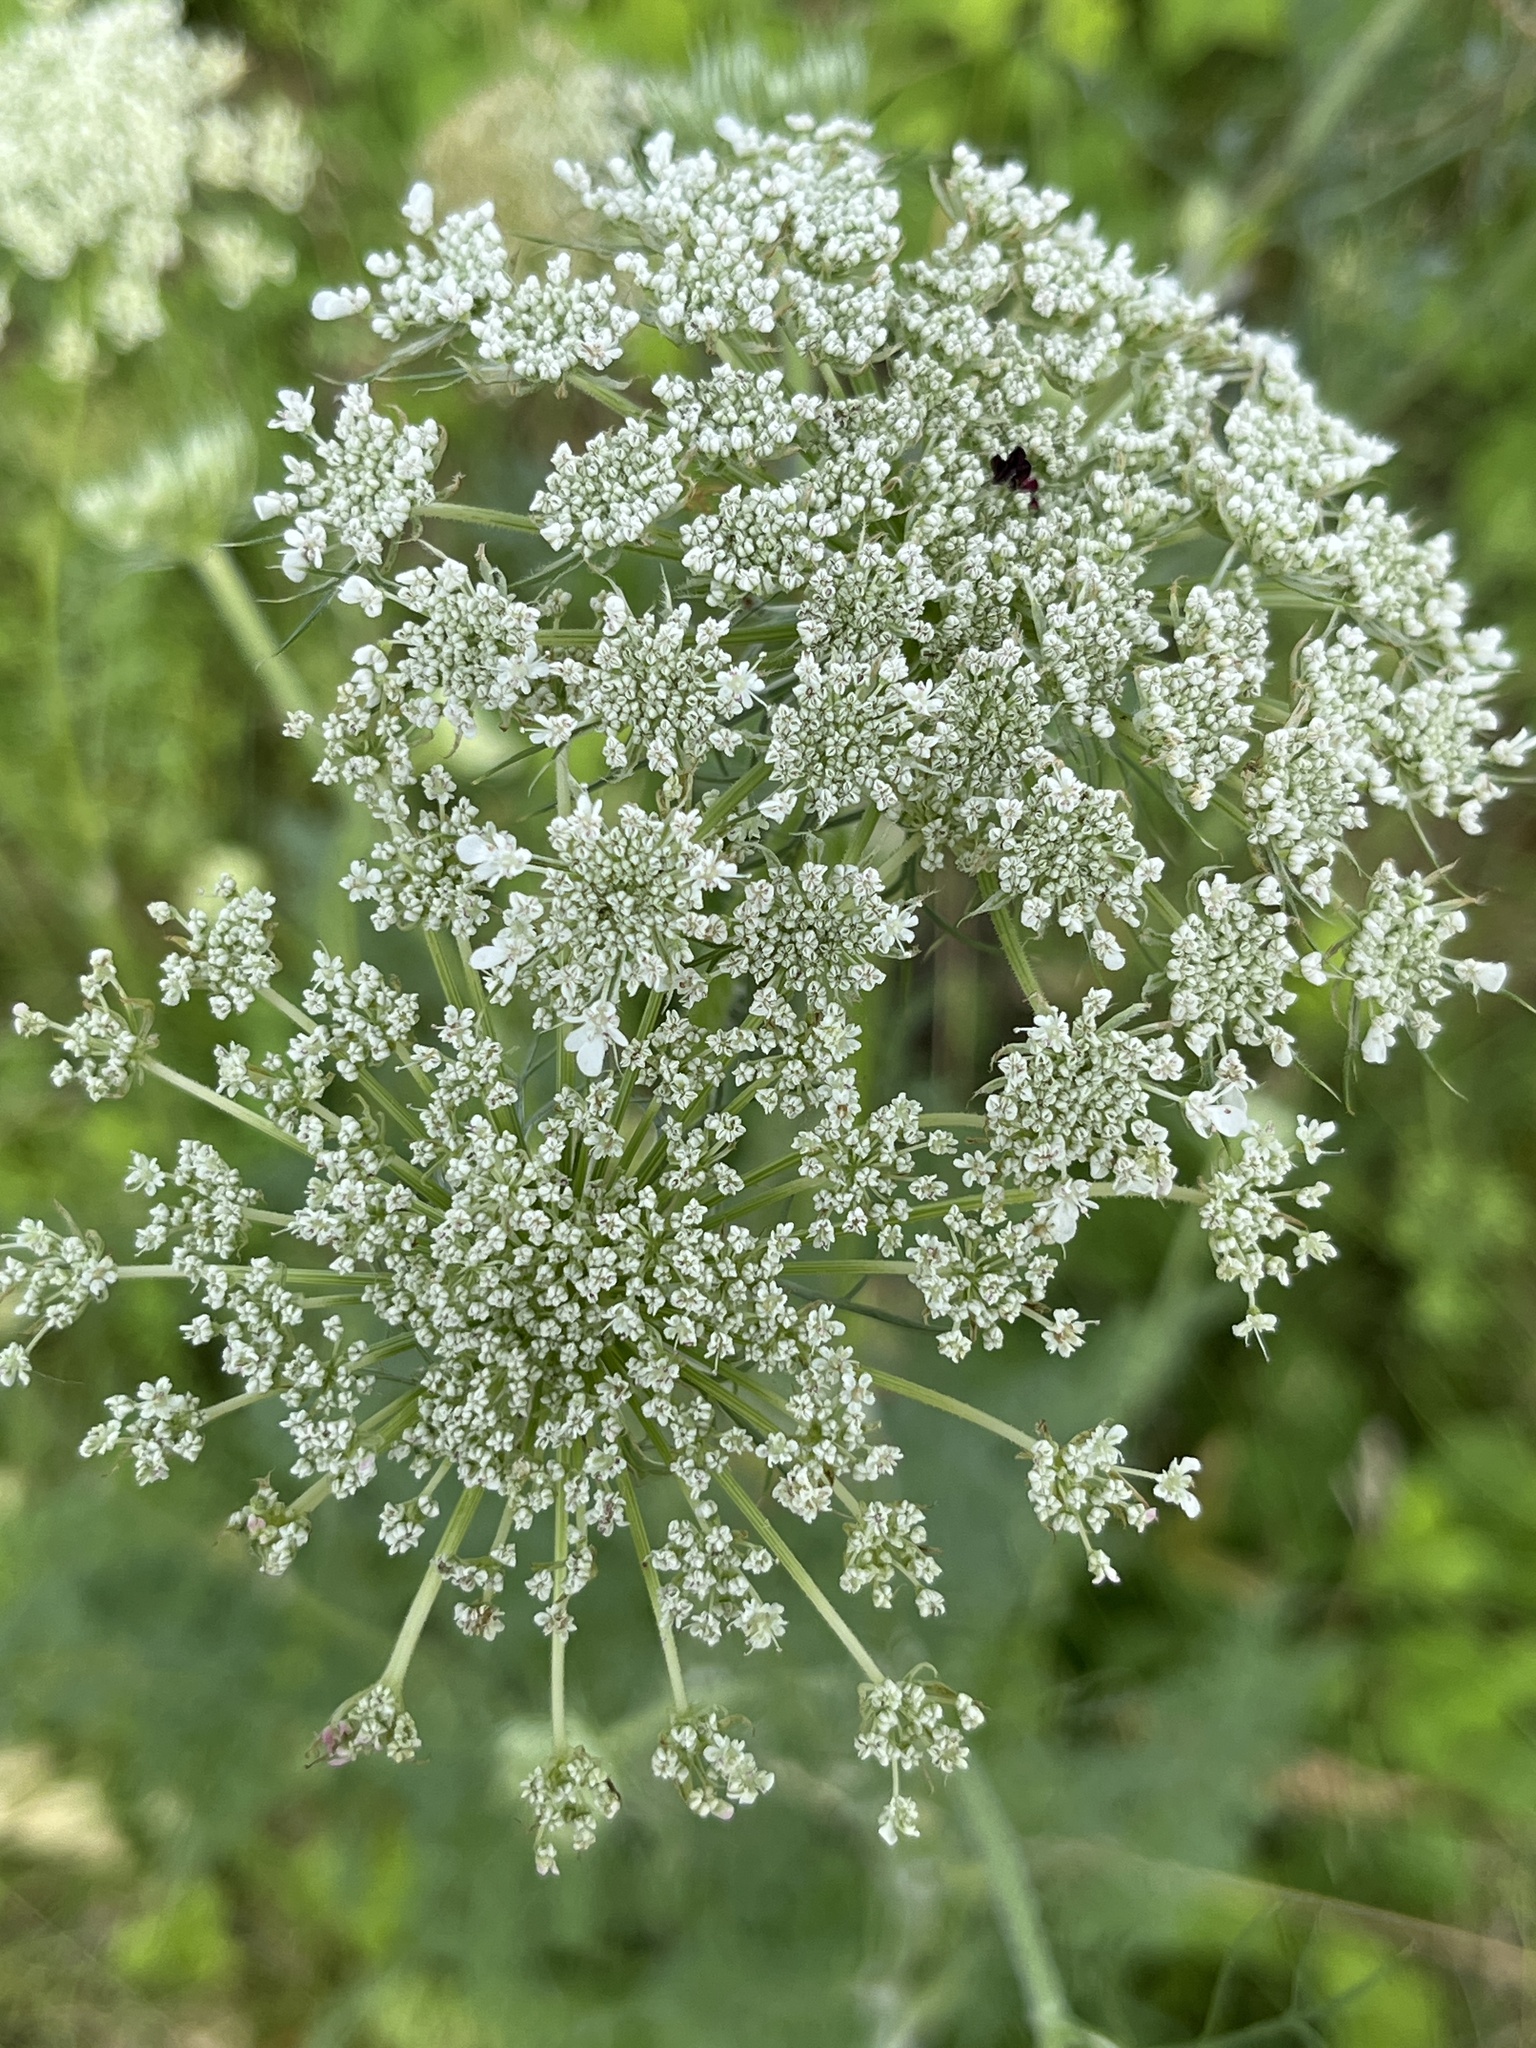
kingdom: Plantae
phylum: Tracheophyta
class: Magnoliopsida
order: Apiales
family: Apiaceae
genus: Daucus
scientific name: Daucus carota
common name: Wild carrot
